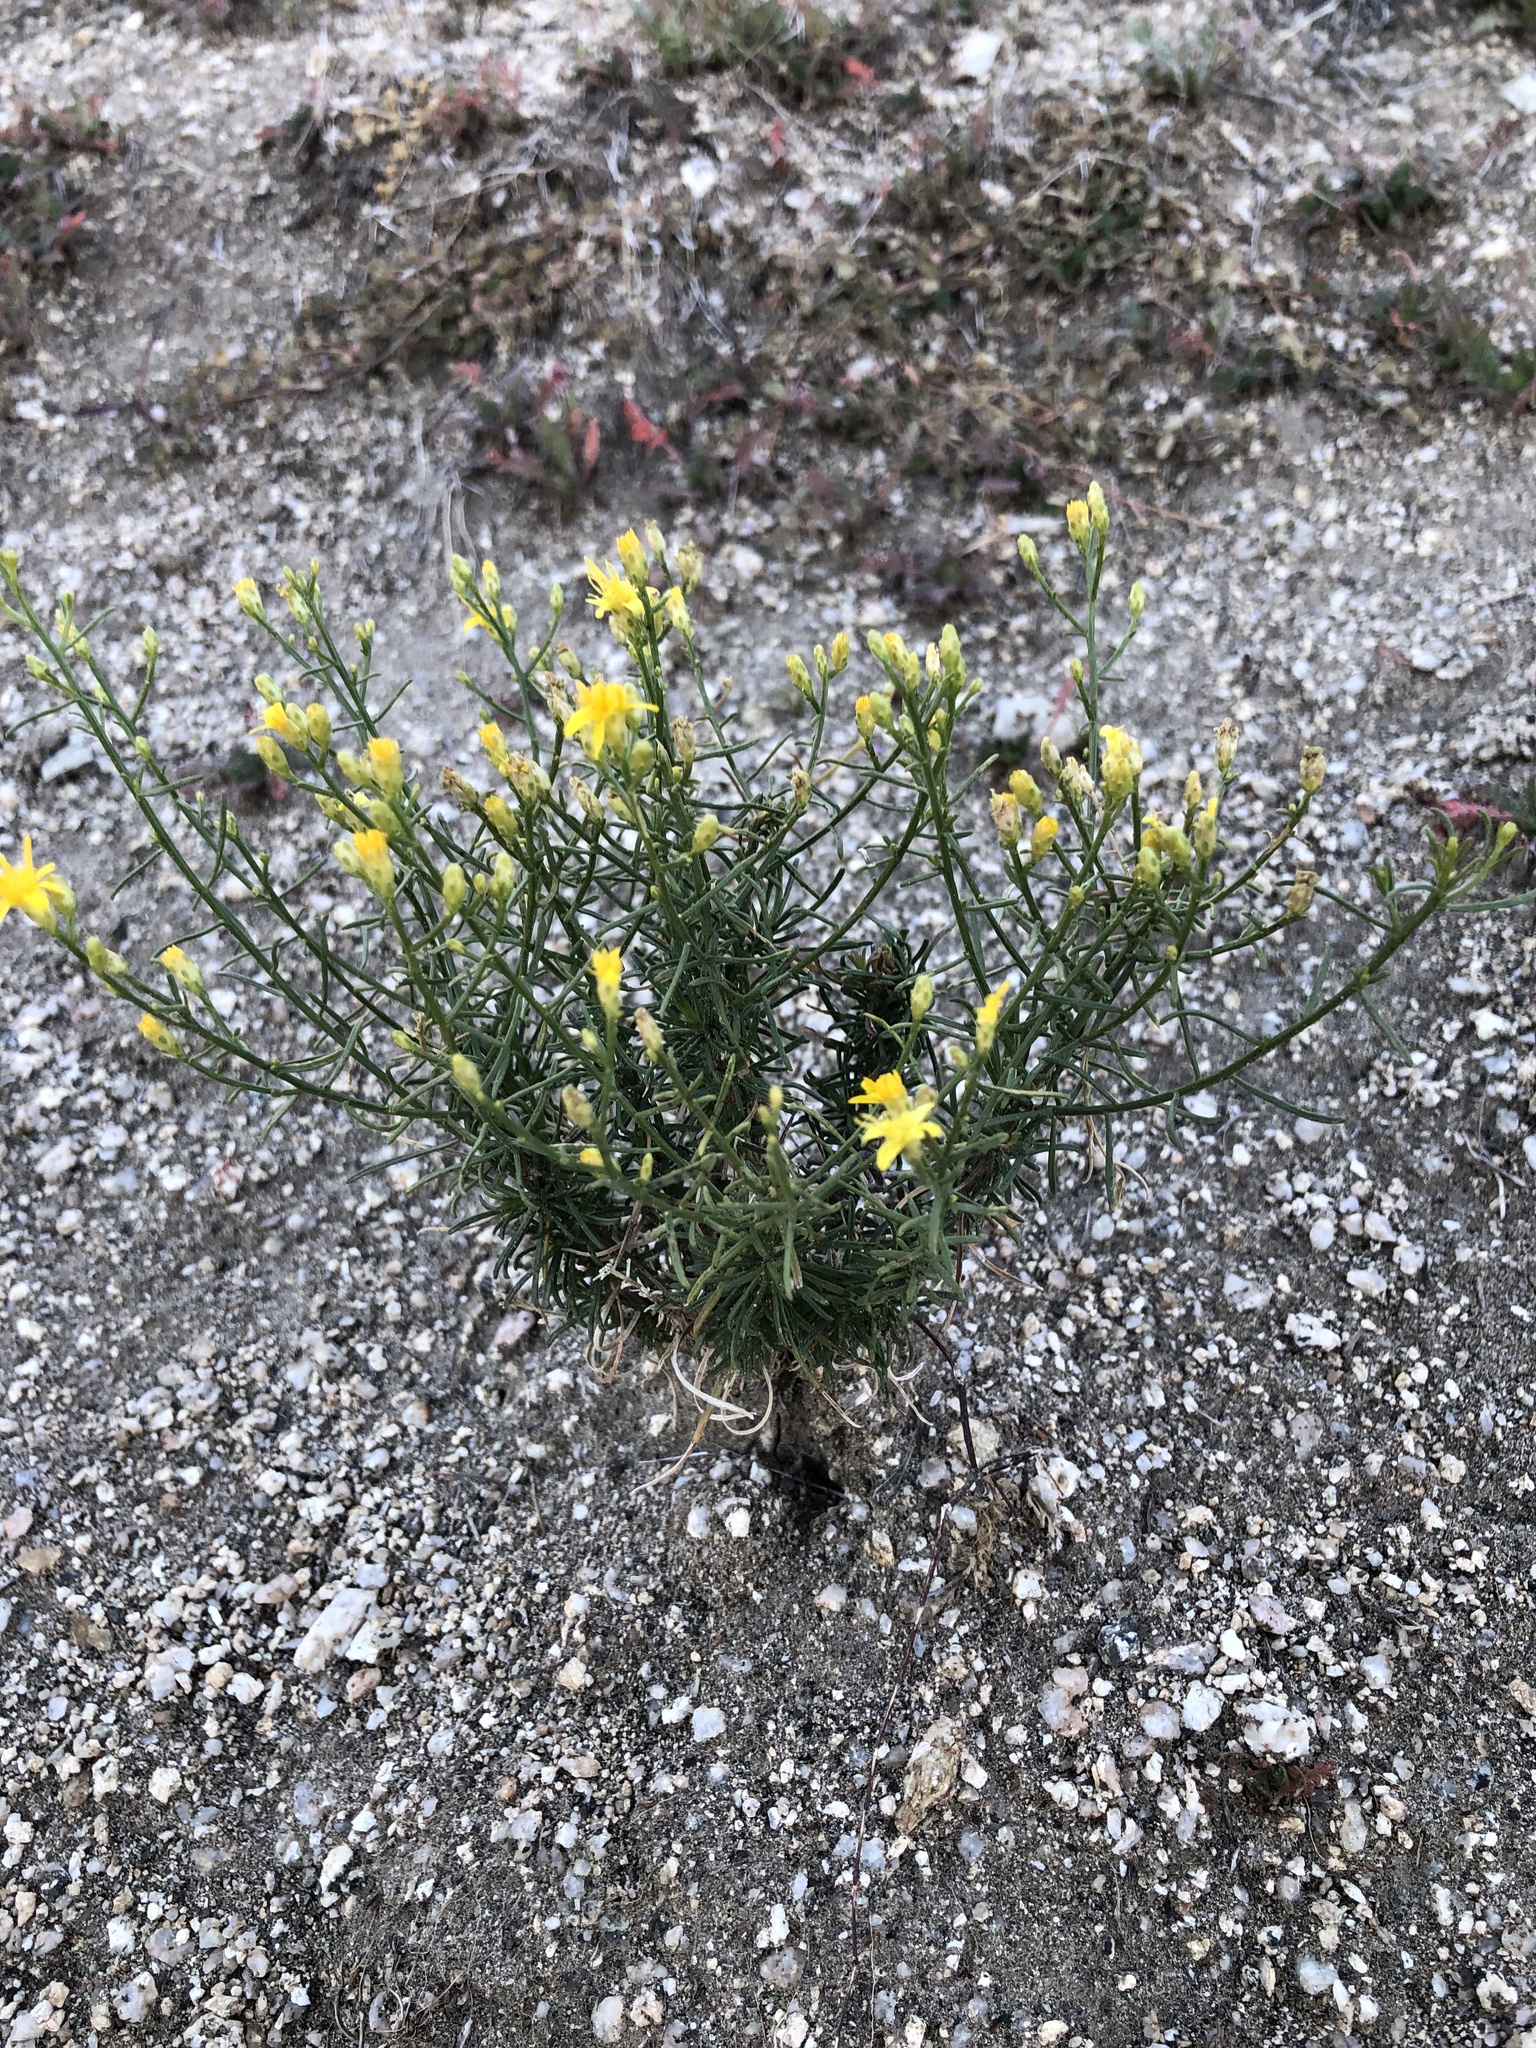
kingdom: Plantae
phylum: Tracheophyta
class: Magnoliopsida
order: Asterales
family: Asteraceae
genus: Gutierrezia
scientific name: Gutierrezia sarothrae
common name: Broom snakeweed
